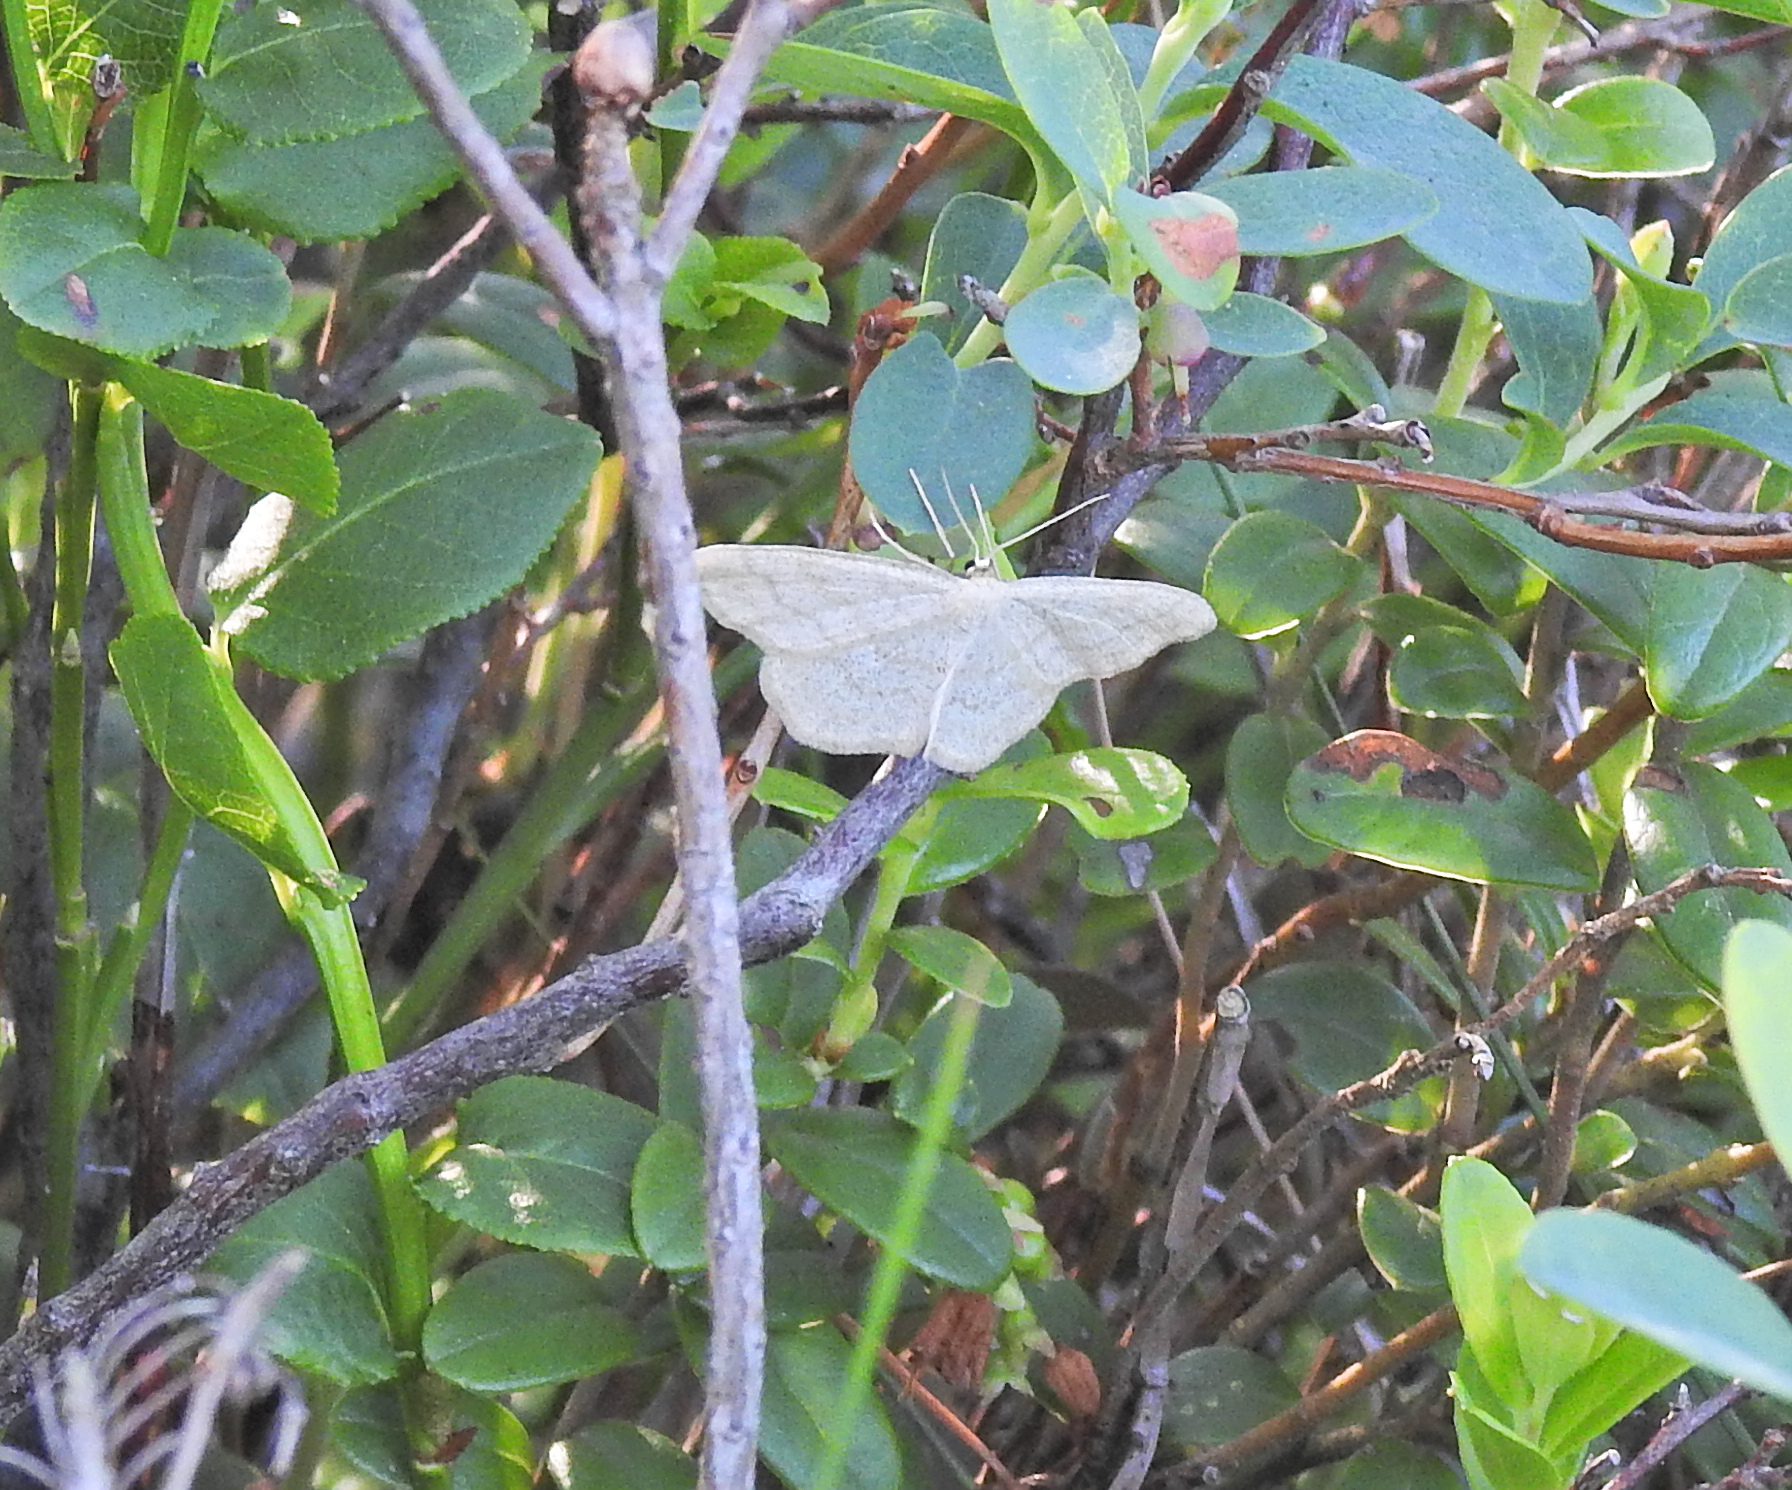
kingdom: Animalia
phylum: Arthropoda
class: Insecta
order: Lepidoptera
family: Geometridae
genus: Scopula
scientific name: Scopula ternata
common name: Smoky wave
